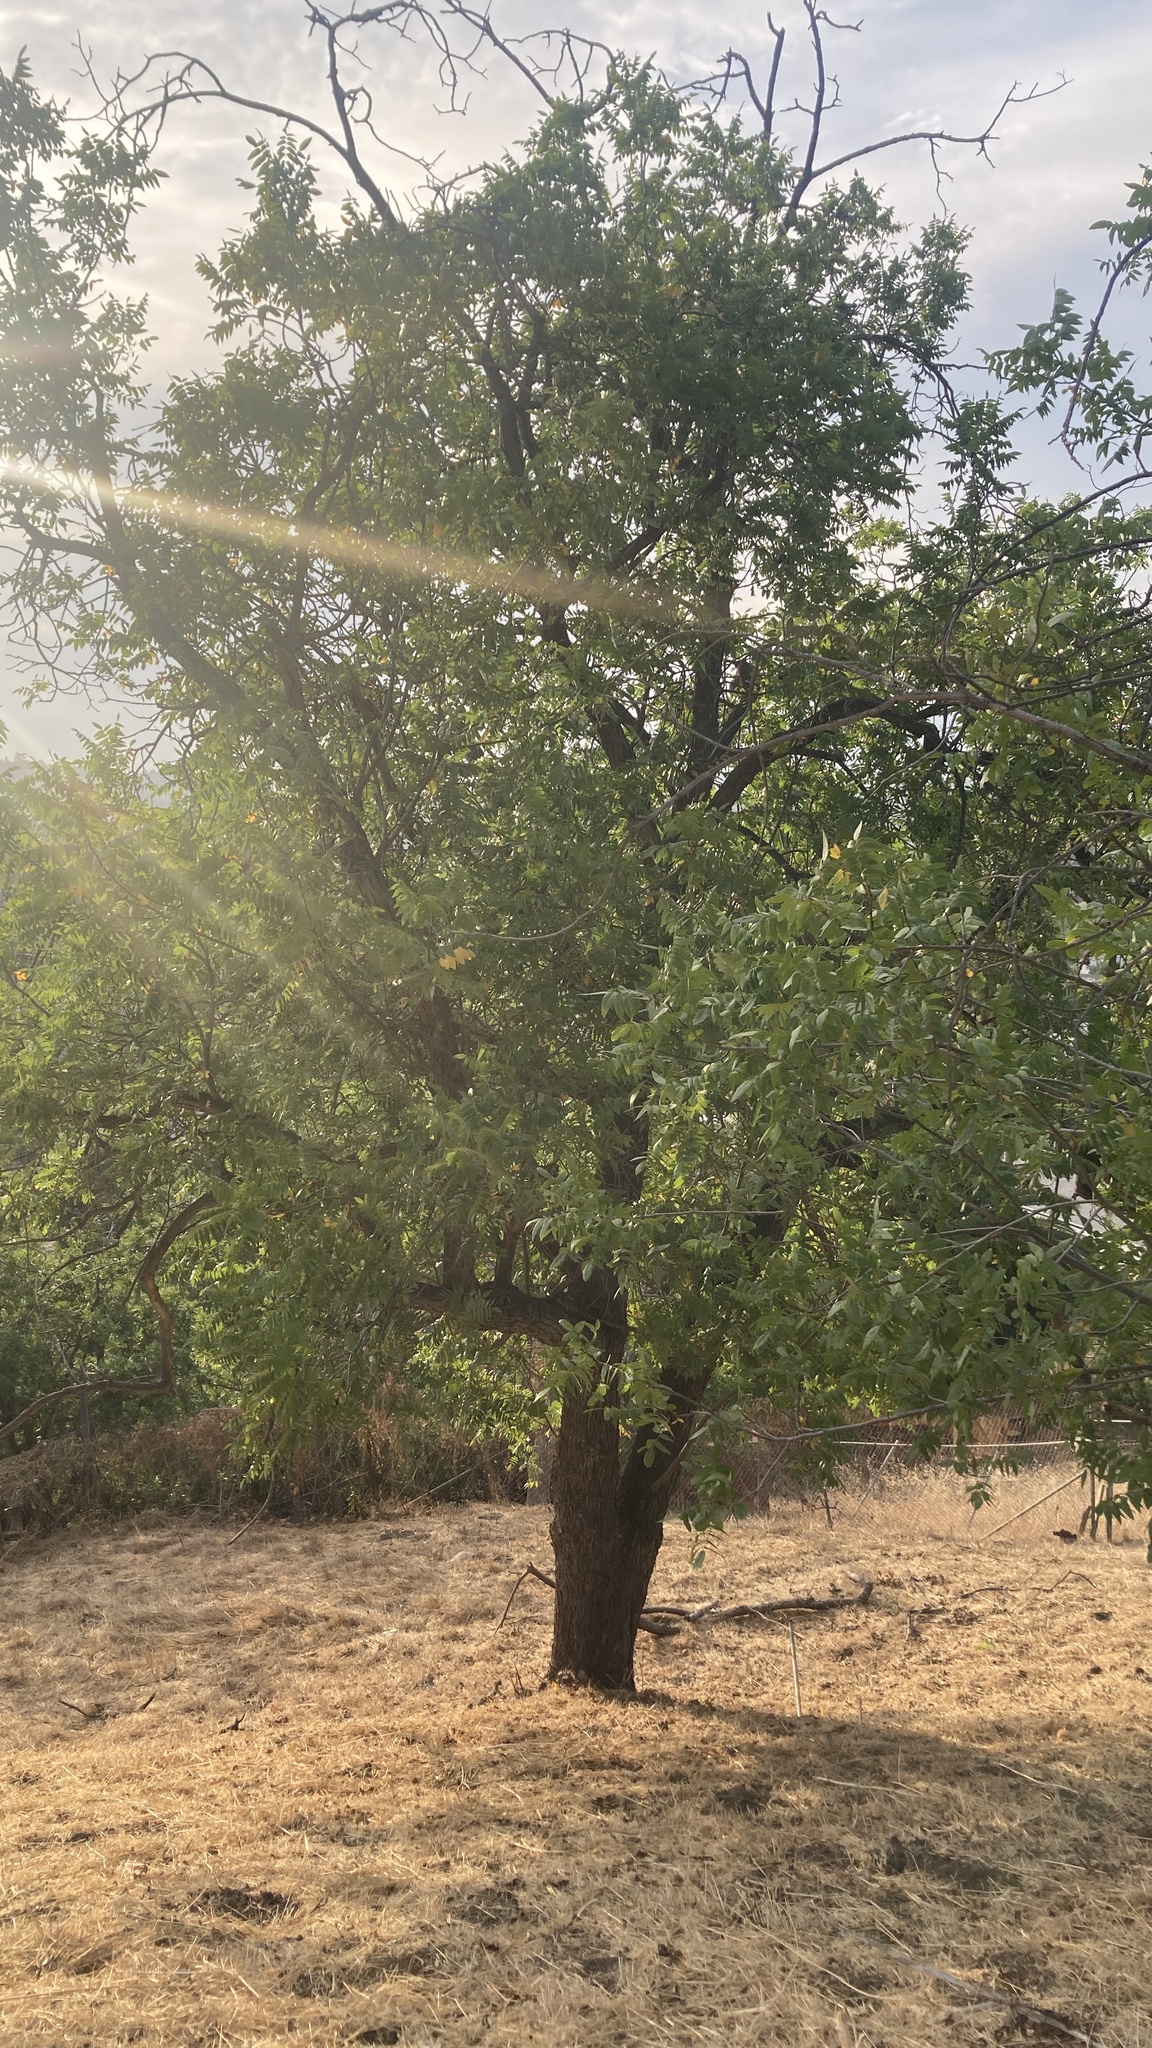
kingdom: Plantae
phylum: Tracheophyta
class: Magnoliopsida
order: Fagales
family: Juglandaceae
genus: Juglans
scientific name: Juglans californica
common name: Southern california black walnut
